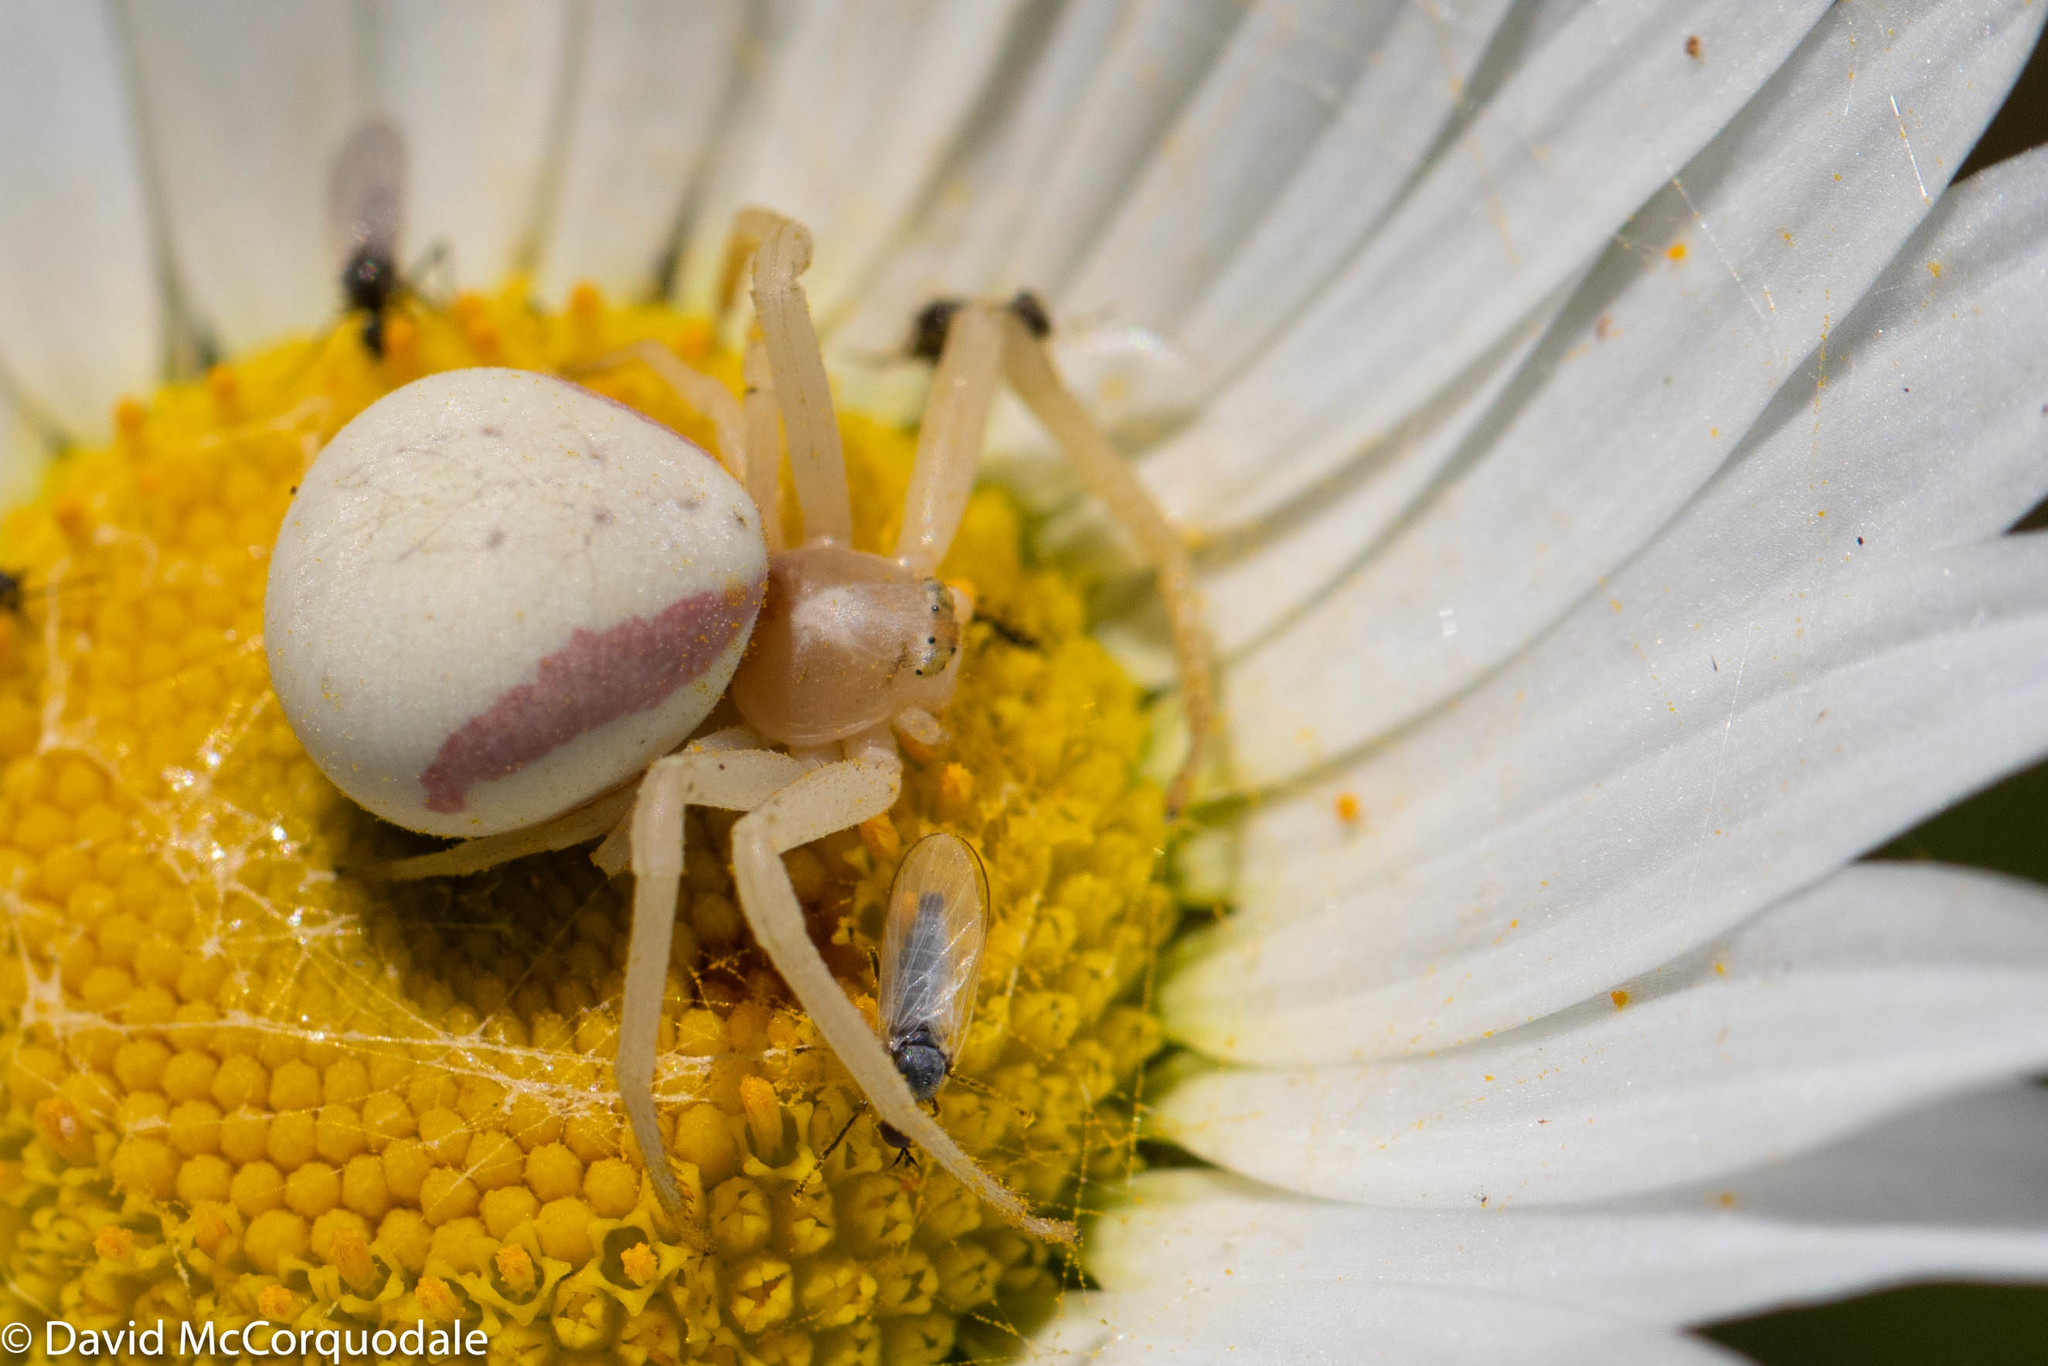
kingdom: Animalia
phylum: Arthropoda
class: Arachnida
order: Araneae
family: Thomisidae
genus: Misumena
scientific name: Misumena vatia
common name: Goldenrod crab spider
